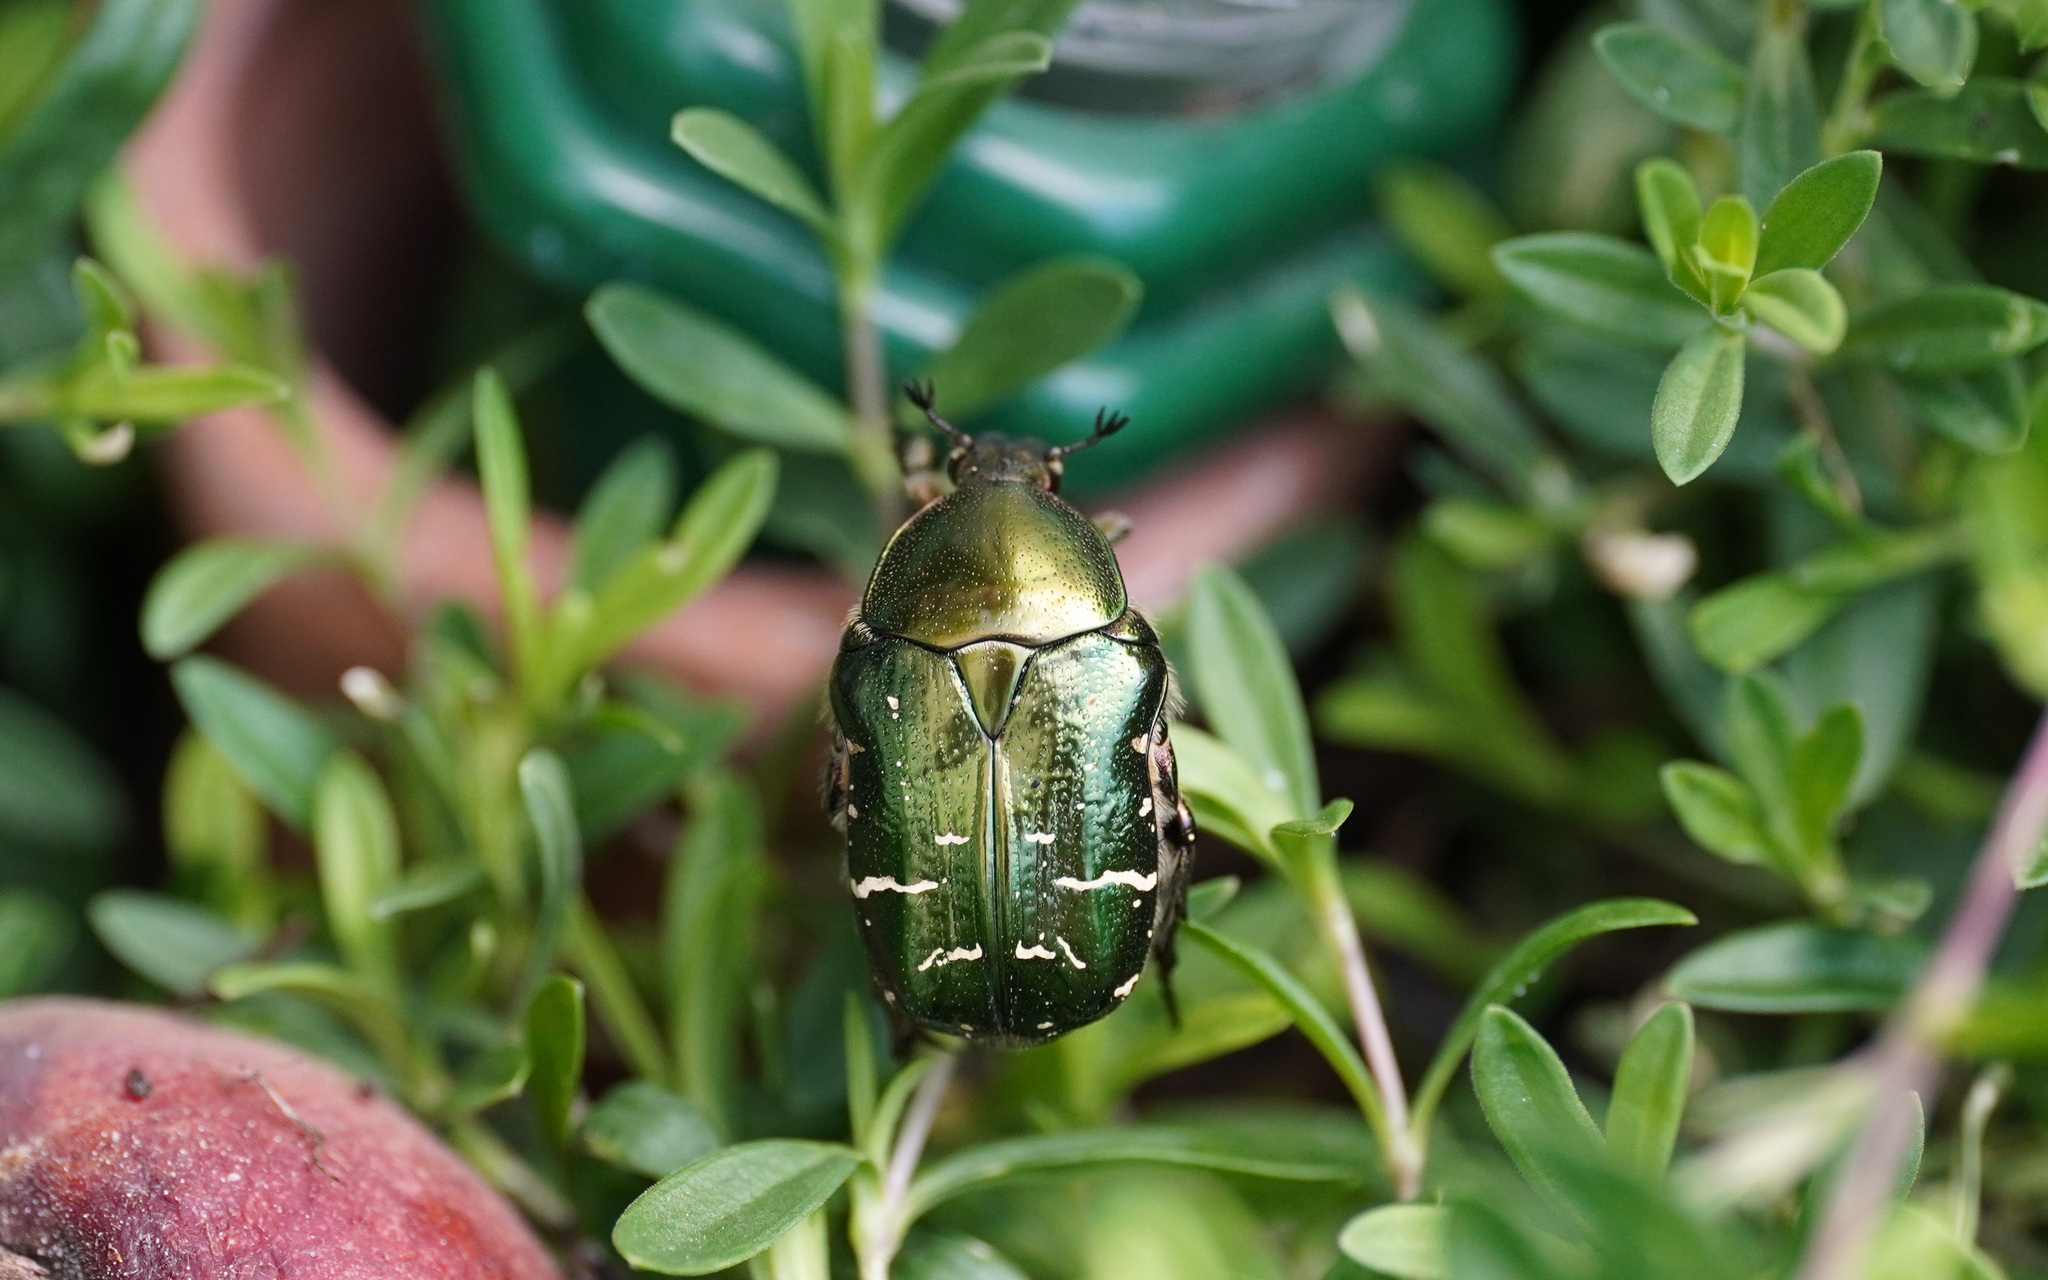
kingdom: Animalia
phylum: Arthropoda
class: Insecta
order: Coleoptera
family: Scarabaeidae
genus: Cetonia
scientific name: Cetonia aurata
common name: Rose chafer
